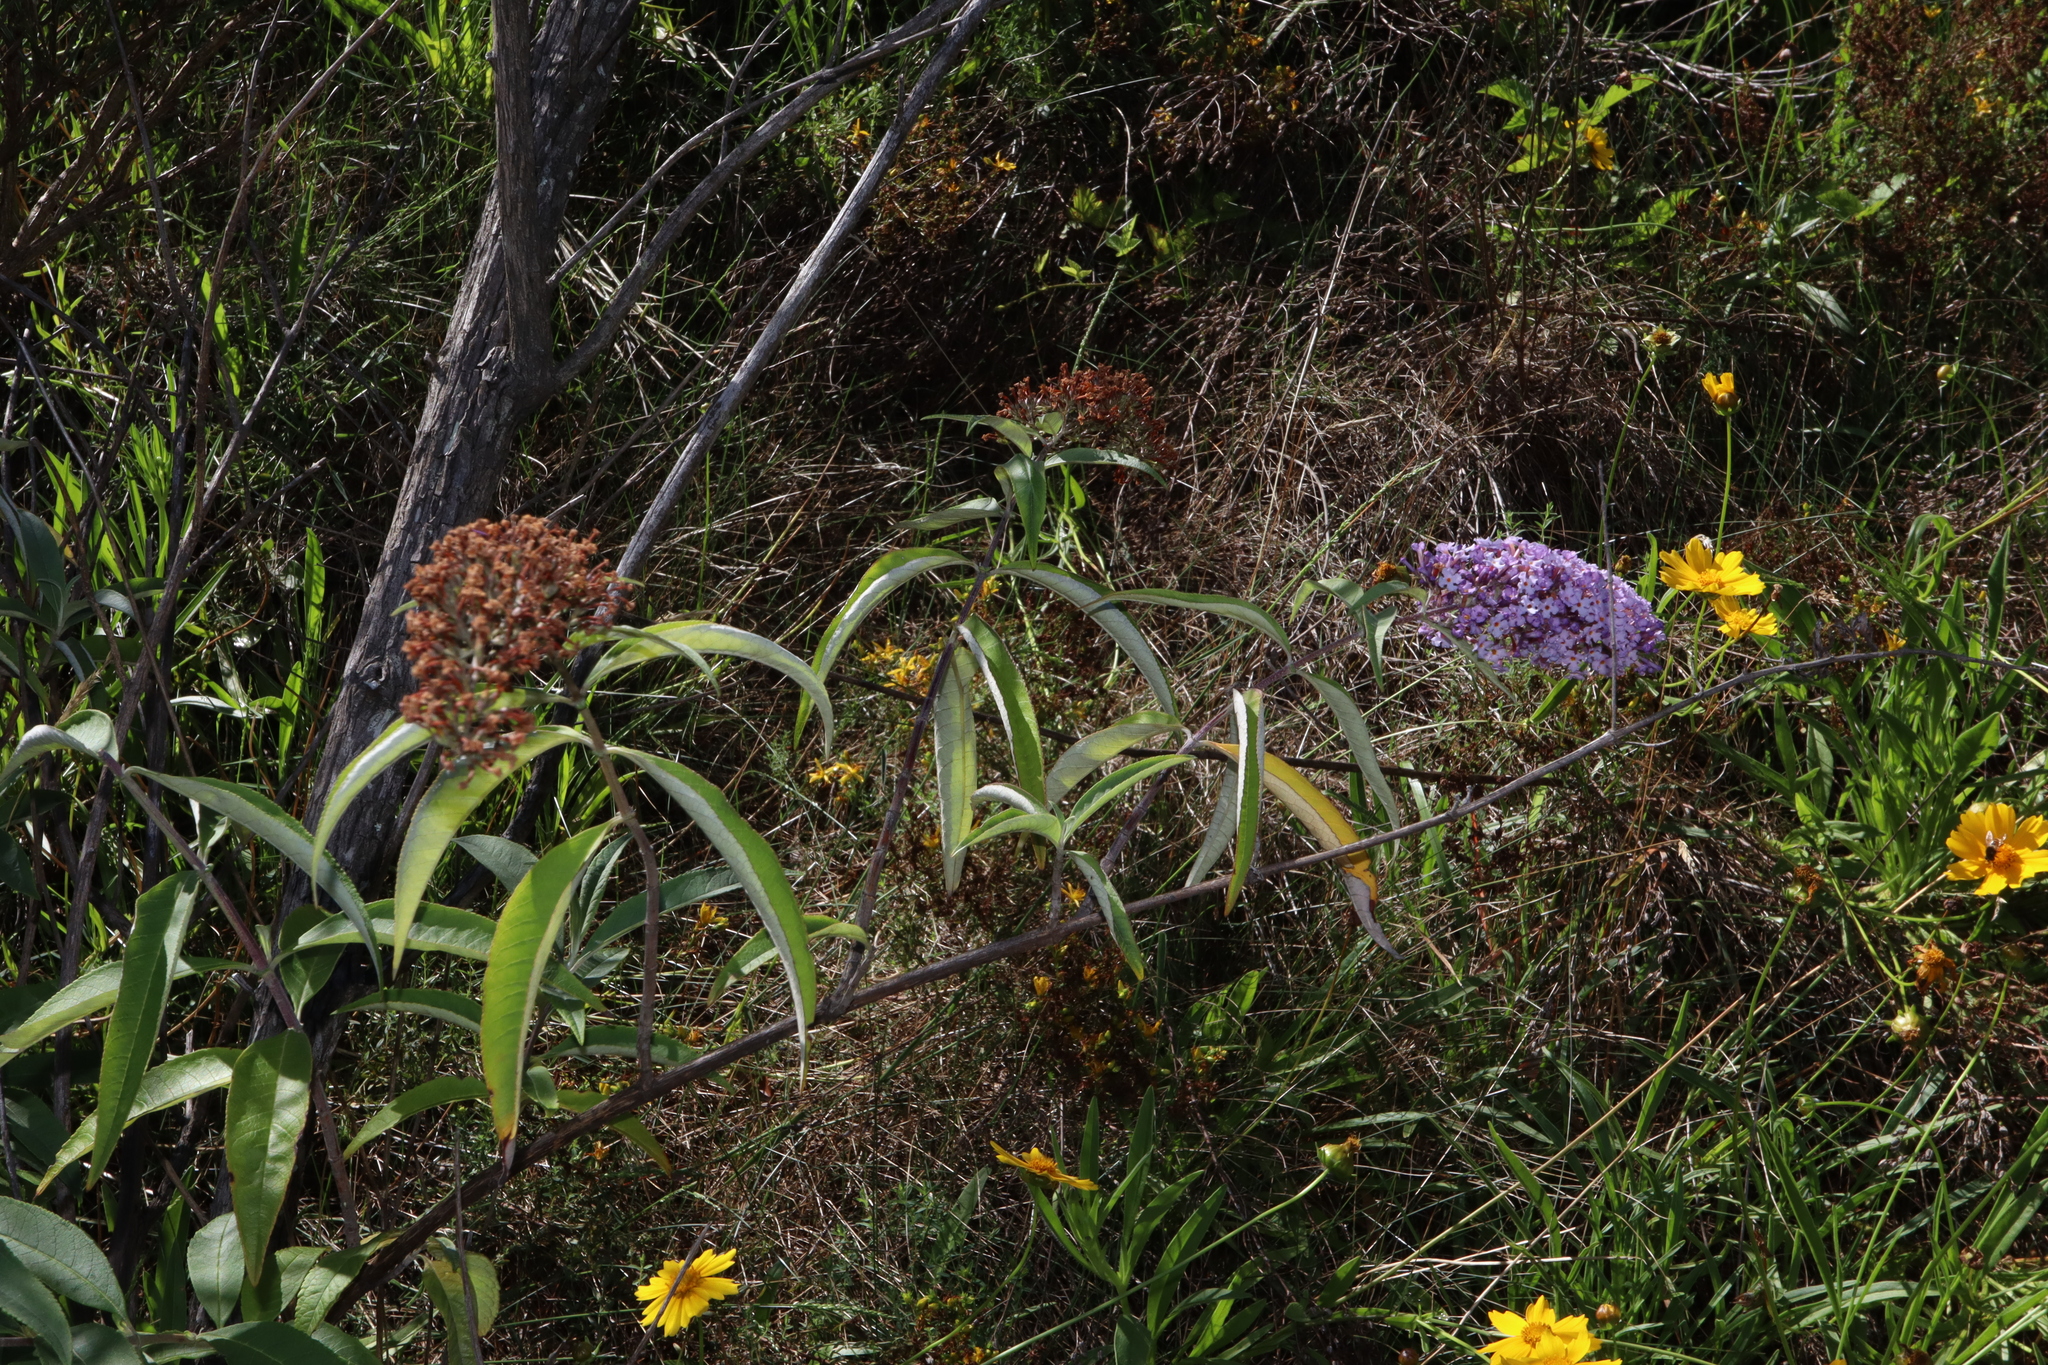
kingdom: Plantae
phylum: Tracheophyta
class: Magnoliopsida
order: Lamiales
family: Scrophulariaceae
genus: Buddleja
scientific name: Buddleja davidii
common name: Butterfly-bush
